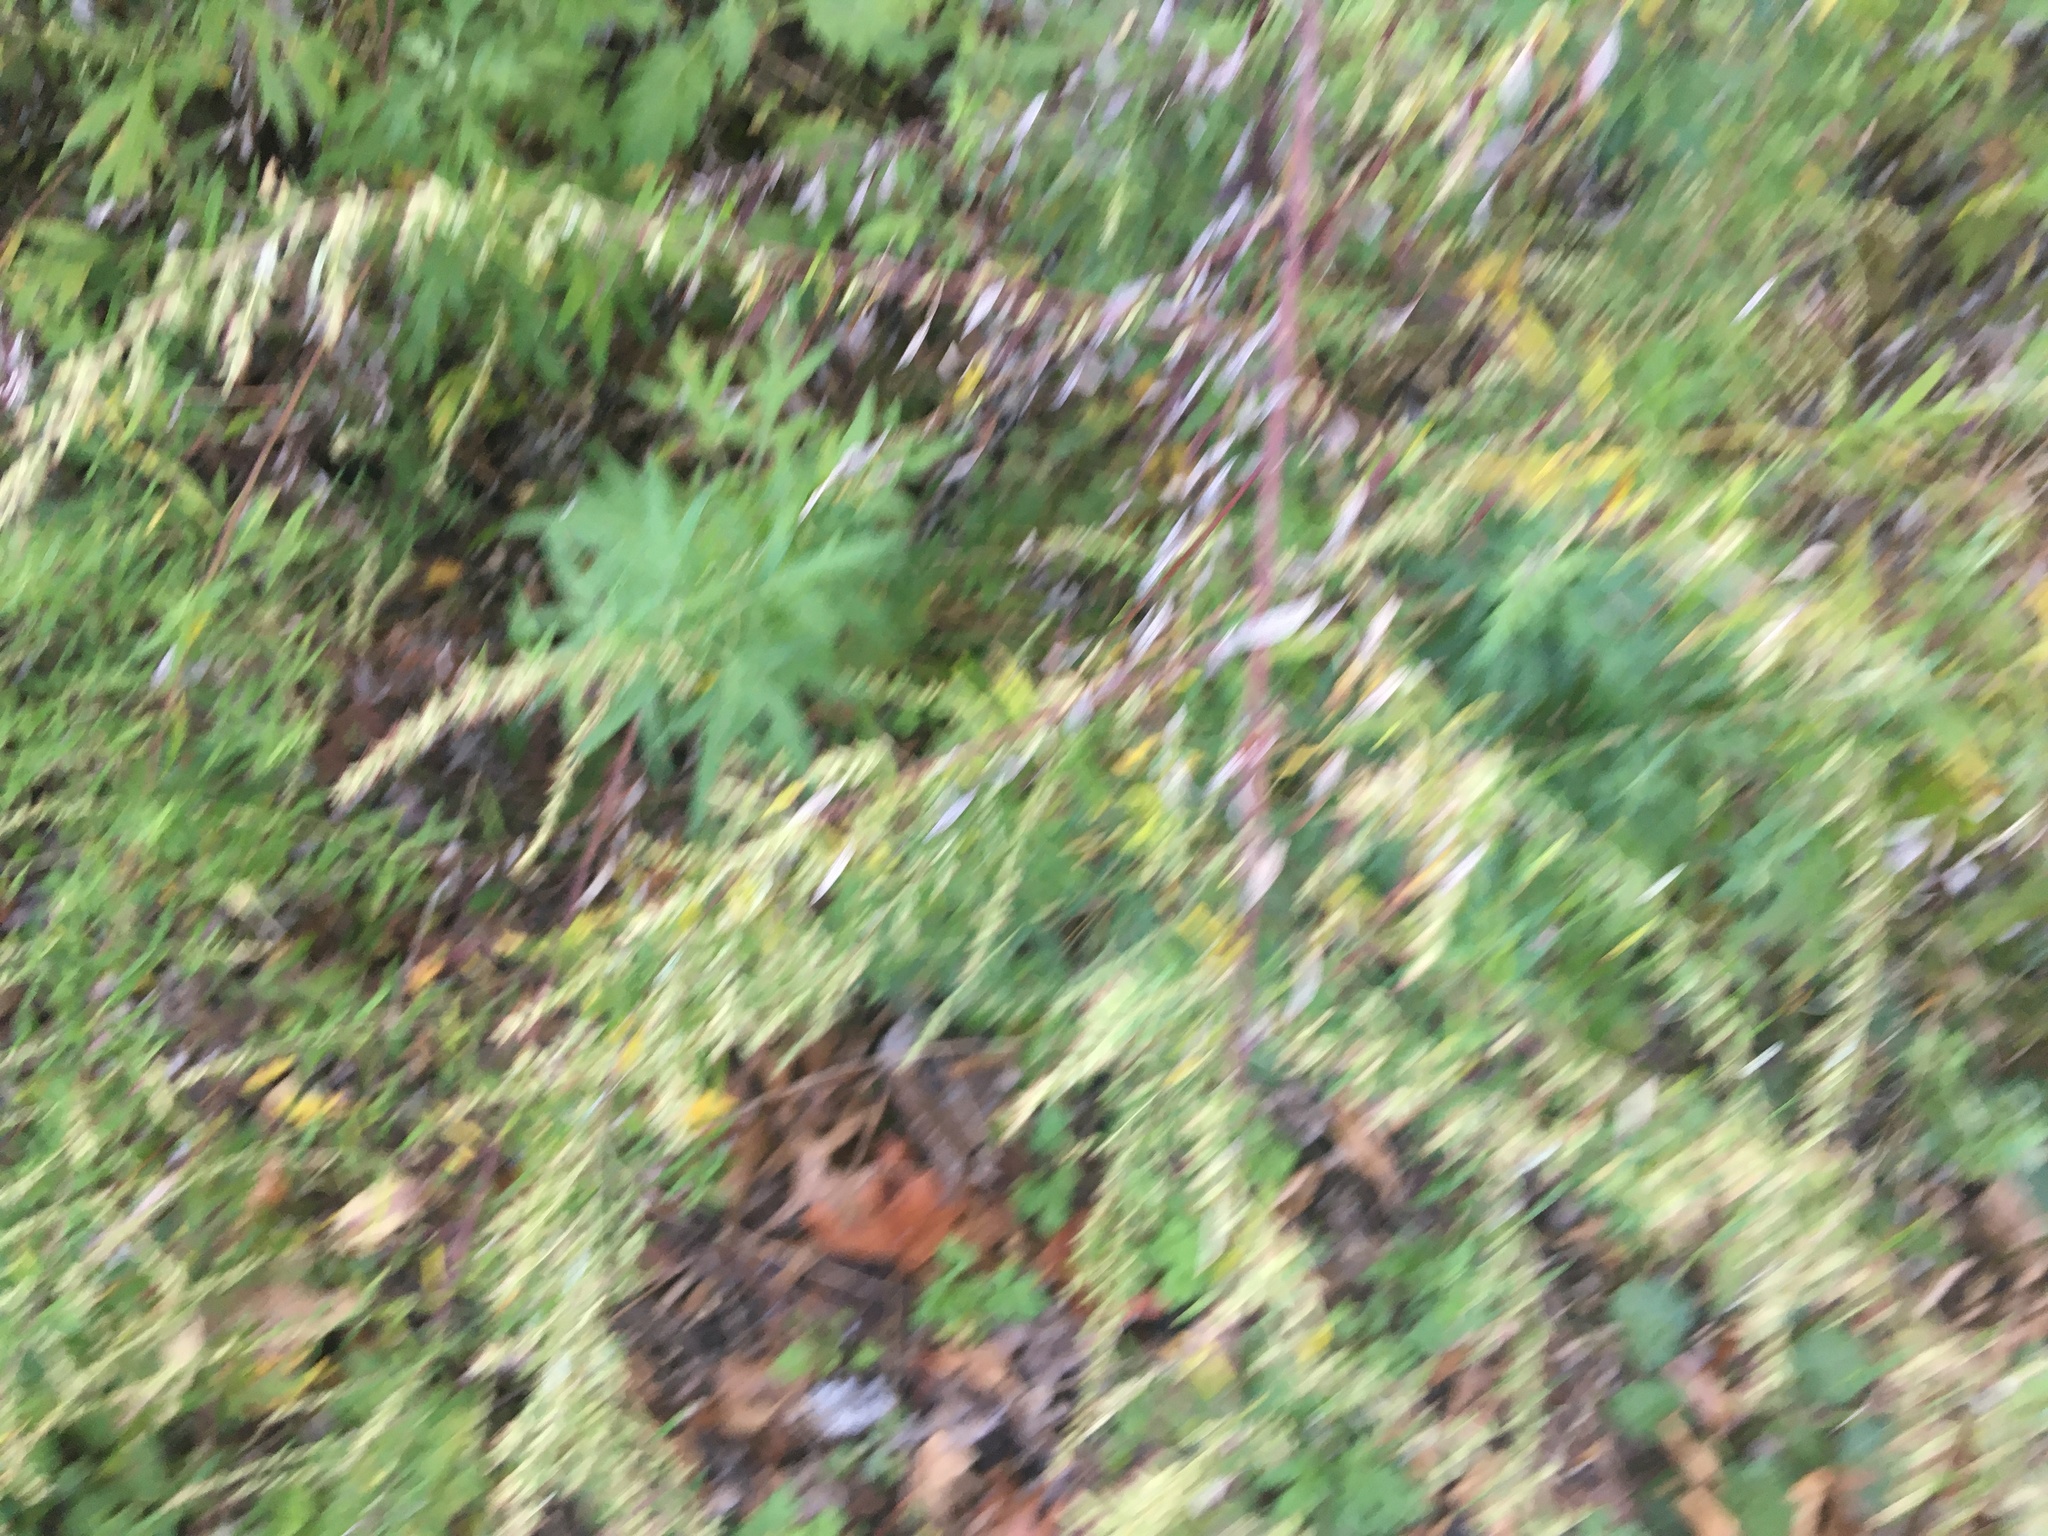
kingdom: Plantae
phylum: Tracheophyta
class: Magnoliopsida
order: Asterales
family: Asteraceae
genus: Artemisia
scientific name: Artemisia vulgaris
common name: Mugwort
